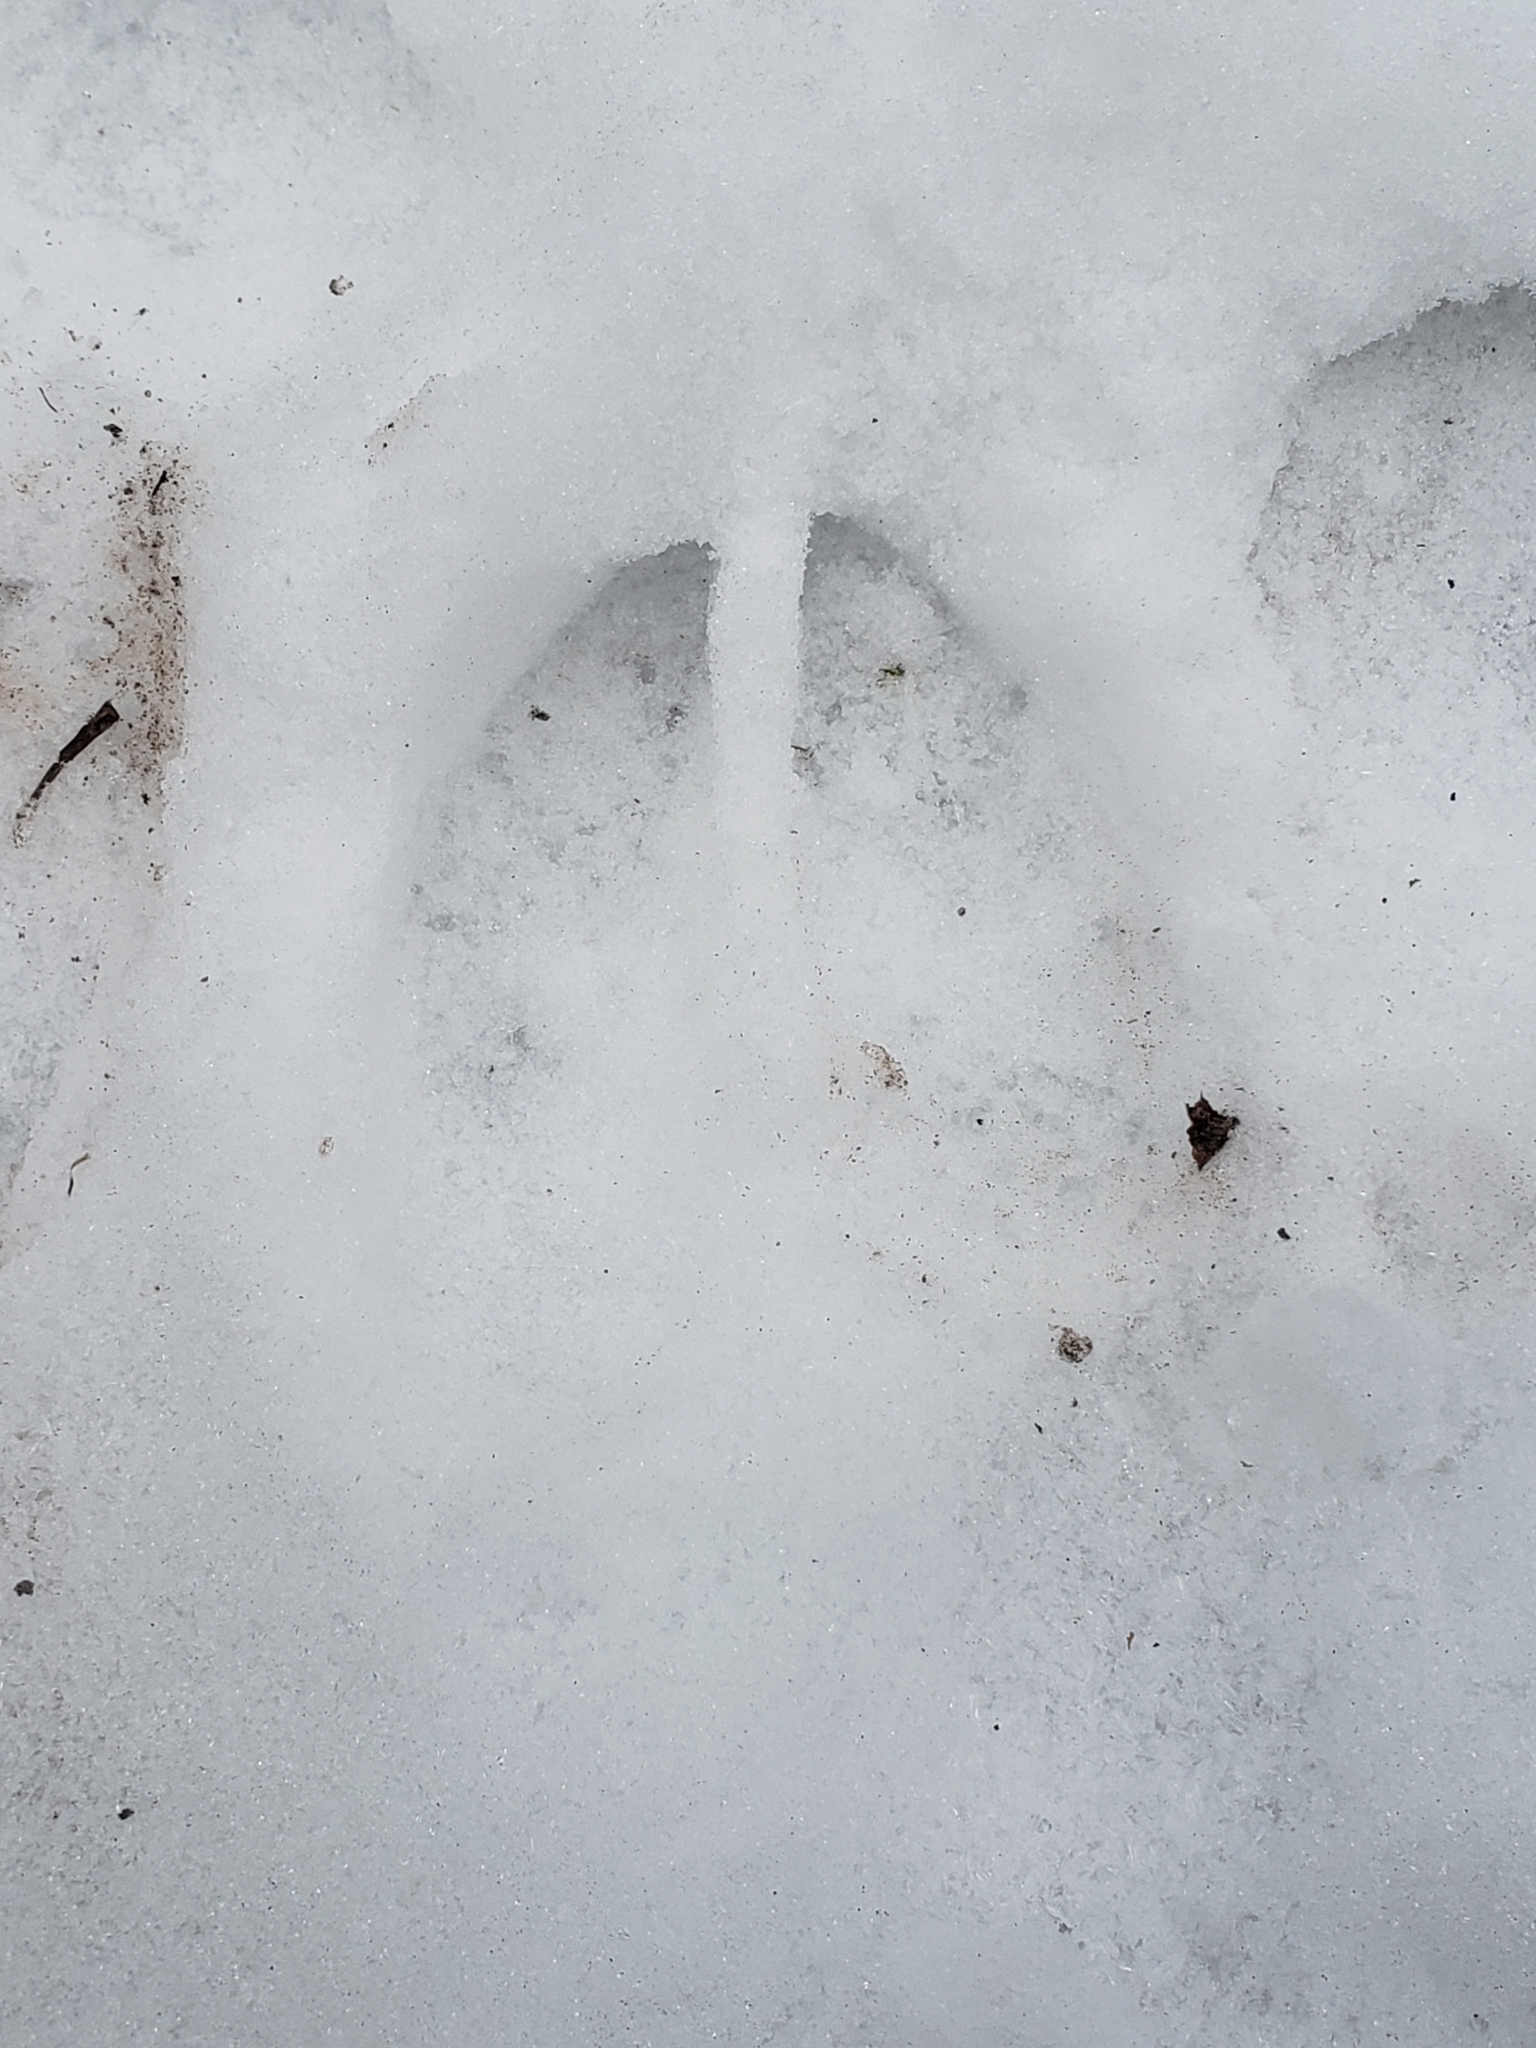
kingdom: Animalia
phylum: Chordata
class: Mammalia
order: Artiodactyla
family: Cervidae
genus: Odocoileus
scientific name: Odocoileus virginianus
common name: White-tailed deer
